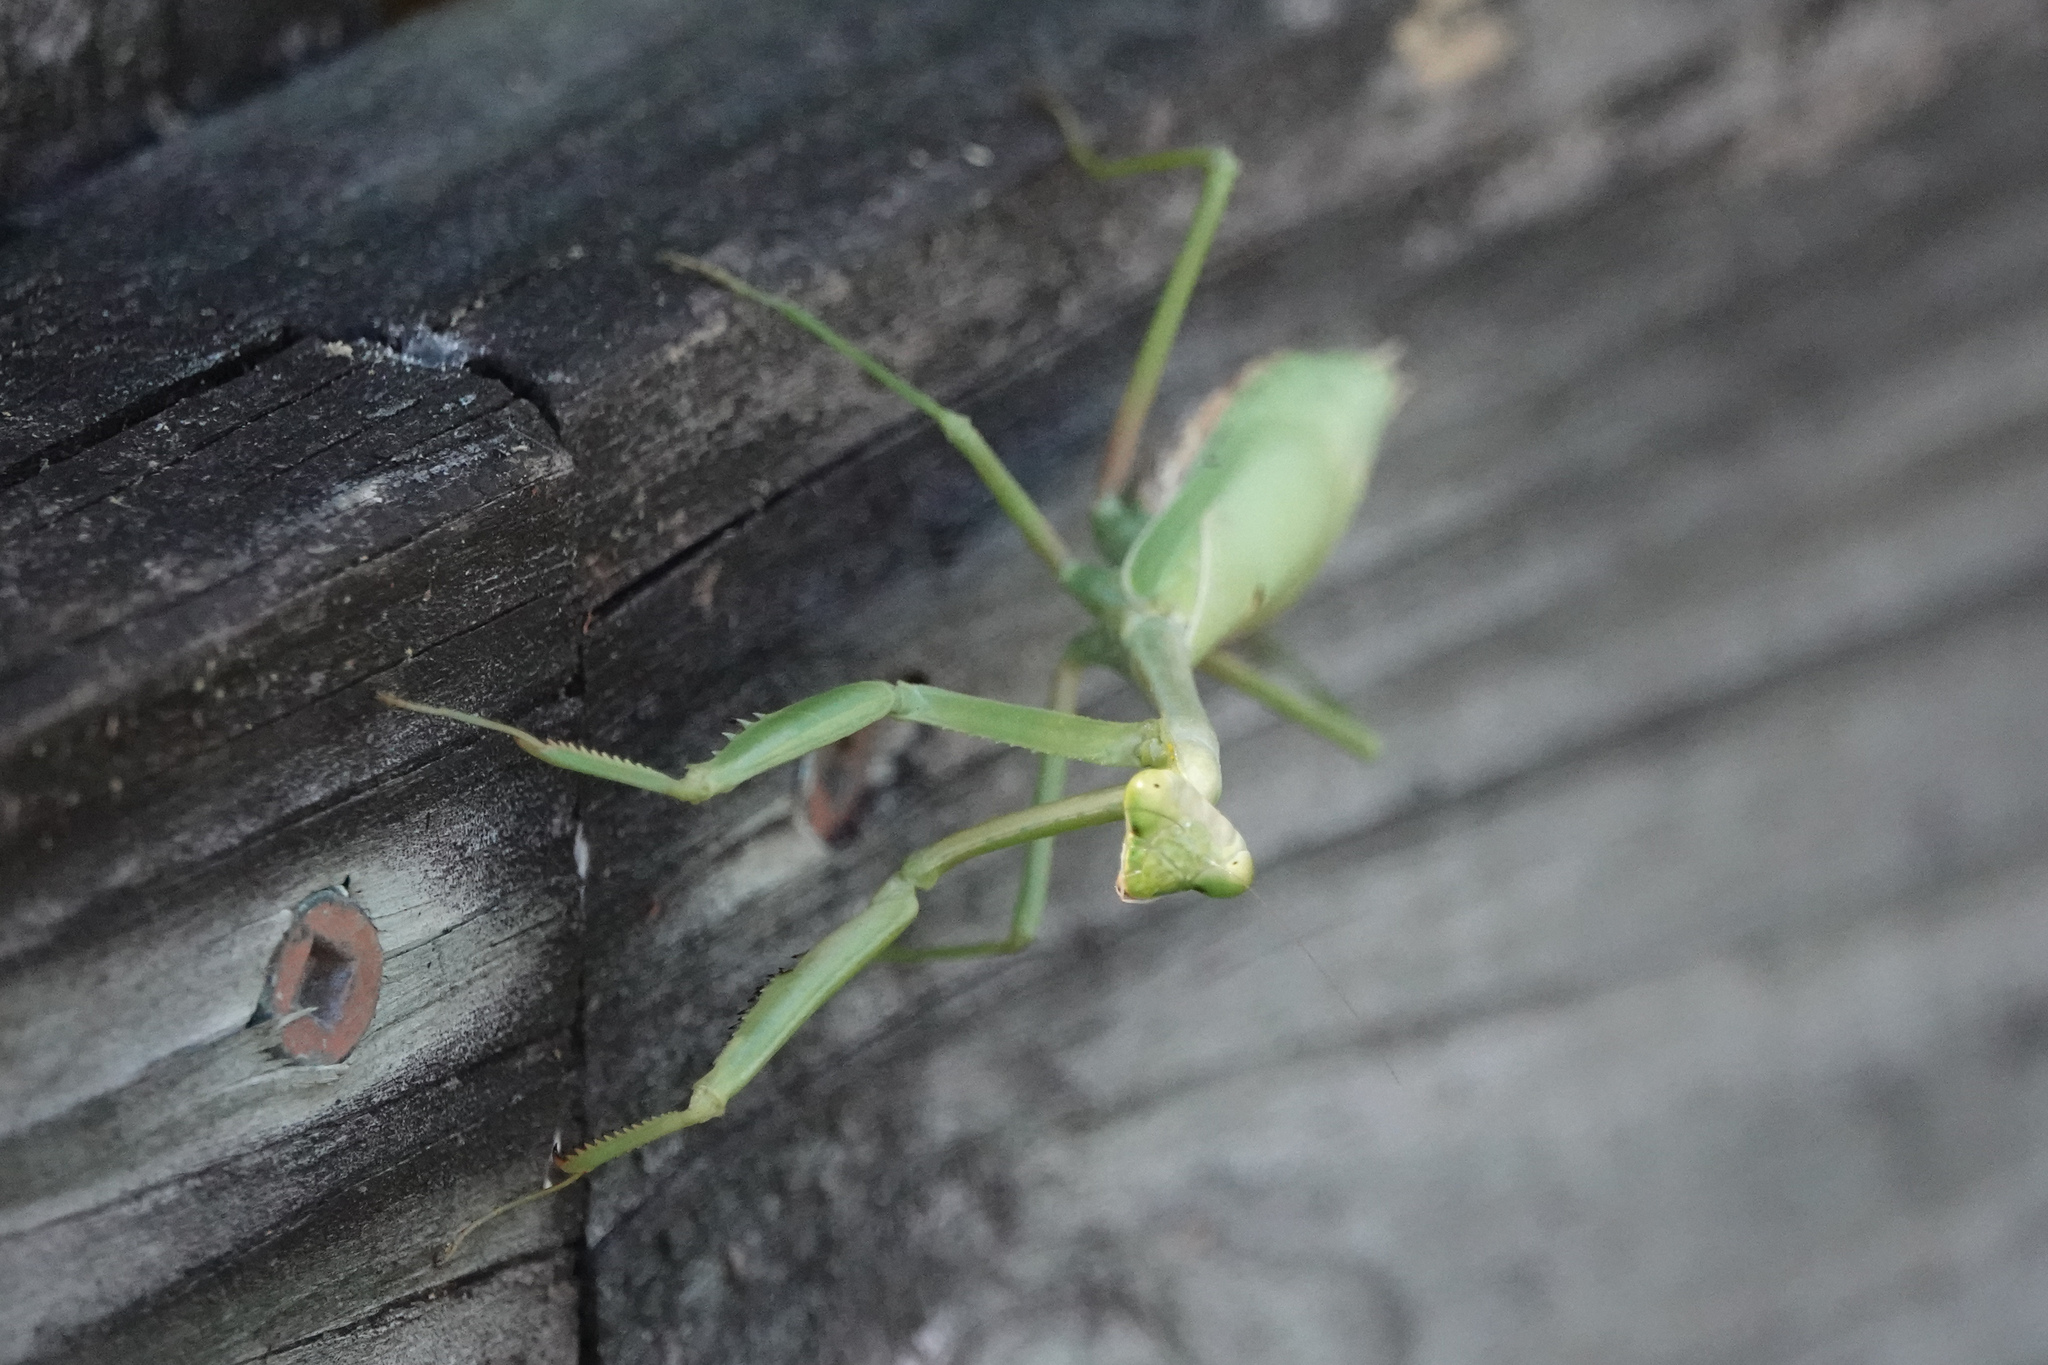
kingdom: Animalia
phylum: Arthropoda
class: Insecta
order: Mantodea
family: Mantidae
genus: Stagmomantis
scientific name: Stagmomantis carolina
